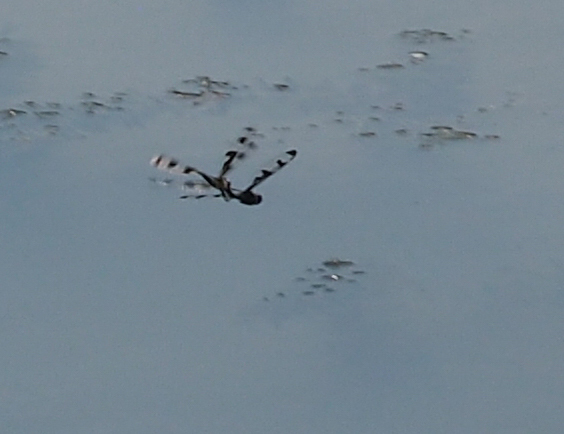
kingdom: Animalia
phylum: Arthropoda
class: Insecta
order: Odonata
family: Libellulidae
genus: Celithemis
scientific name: Celithemis fasciata
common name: Banded pennant
